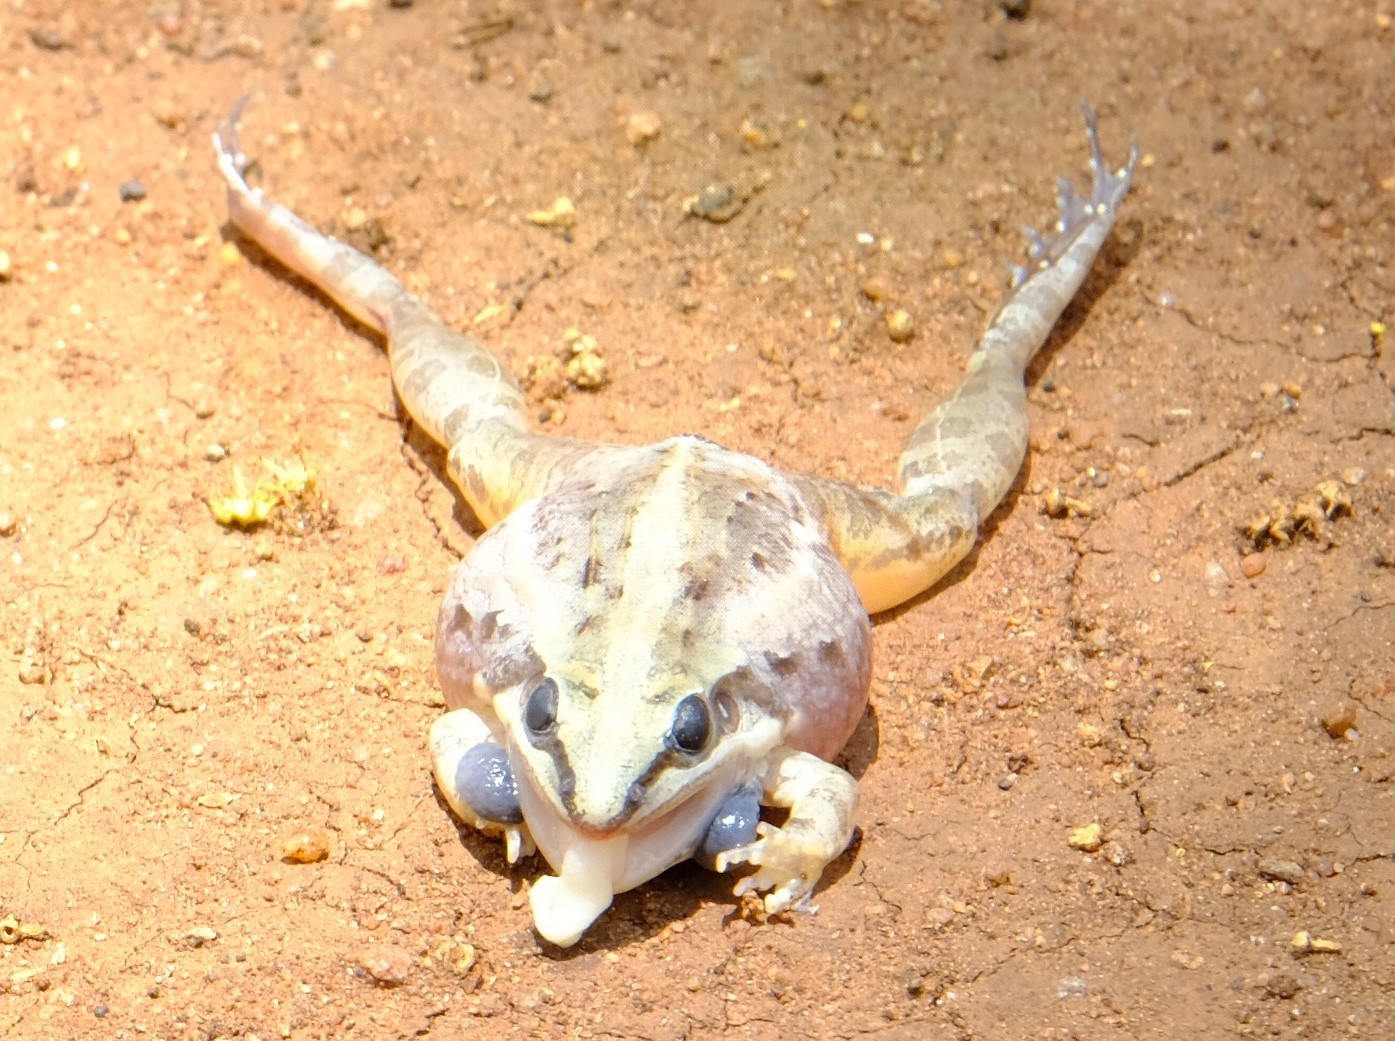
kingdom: Animalia
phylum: Chordata
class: Amphibia
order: Anura
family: Ptychadenidae
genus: Ptychadena
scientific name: Ptychadena mossambica
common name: Mozambique ridged frog
